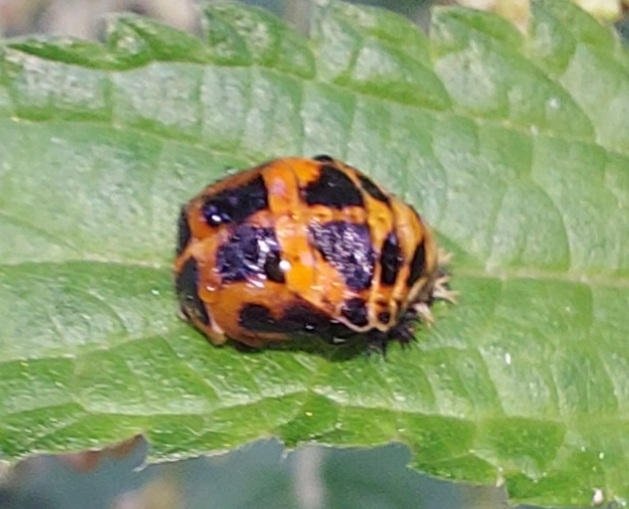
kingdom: Animalia
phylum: Arthropoda
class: Insecta
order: Coleoptera
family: Coccinellidae
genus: Harmonia
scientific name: Harmonia axyridis
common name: Harlequin ladybird
